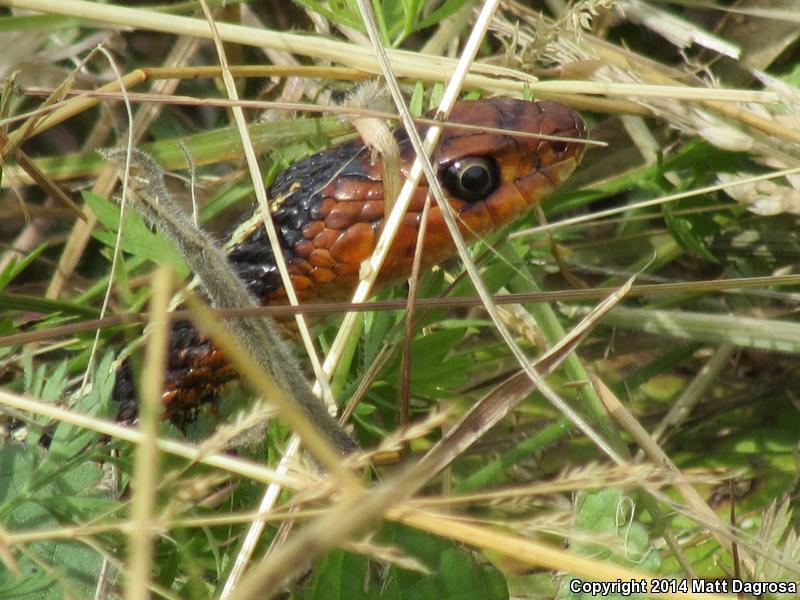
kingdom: Animalia
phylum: Chordata
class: Squamata
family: Colubridae
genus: Thamnophis
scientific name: Thamnophis sirtalis
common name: Common garter snake
